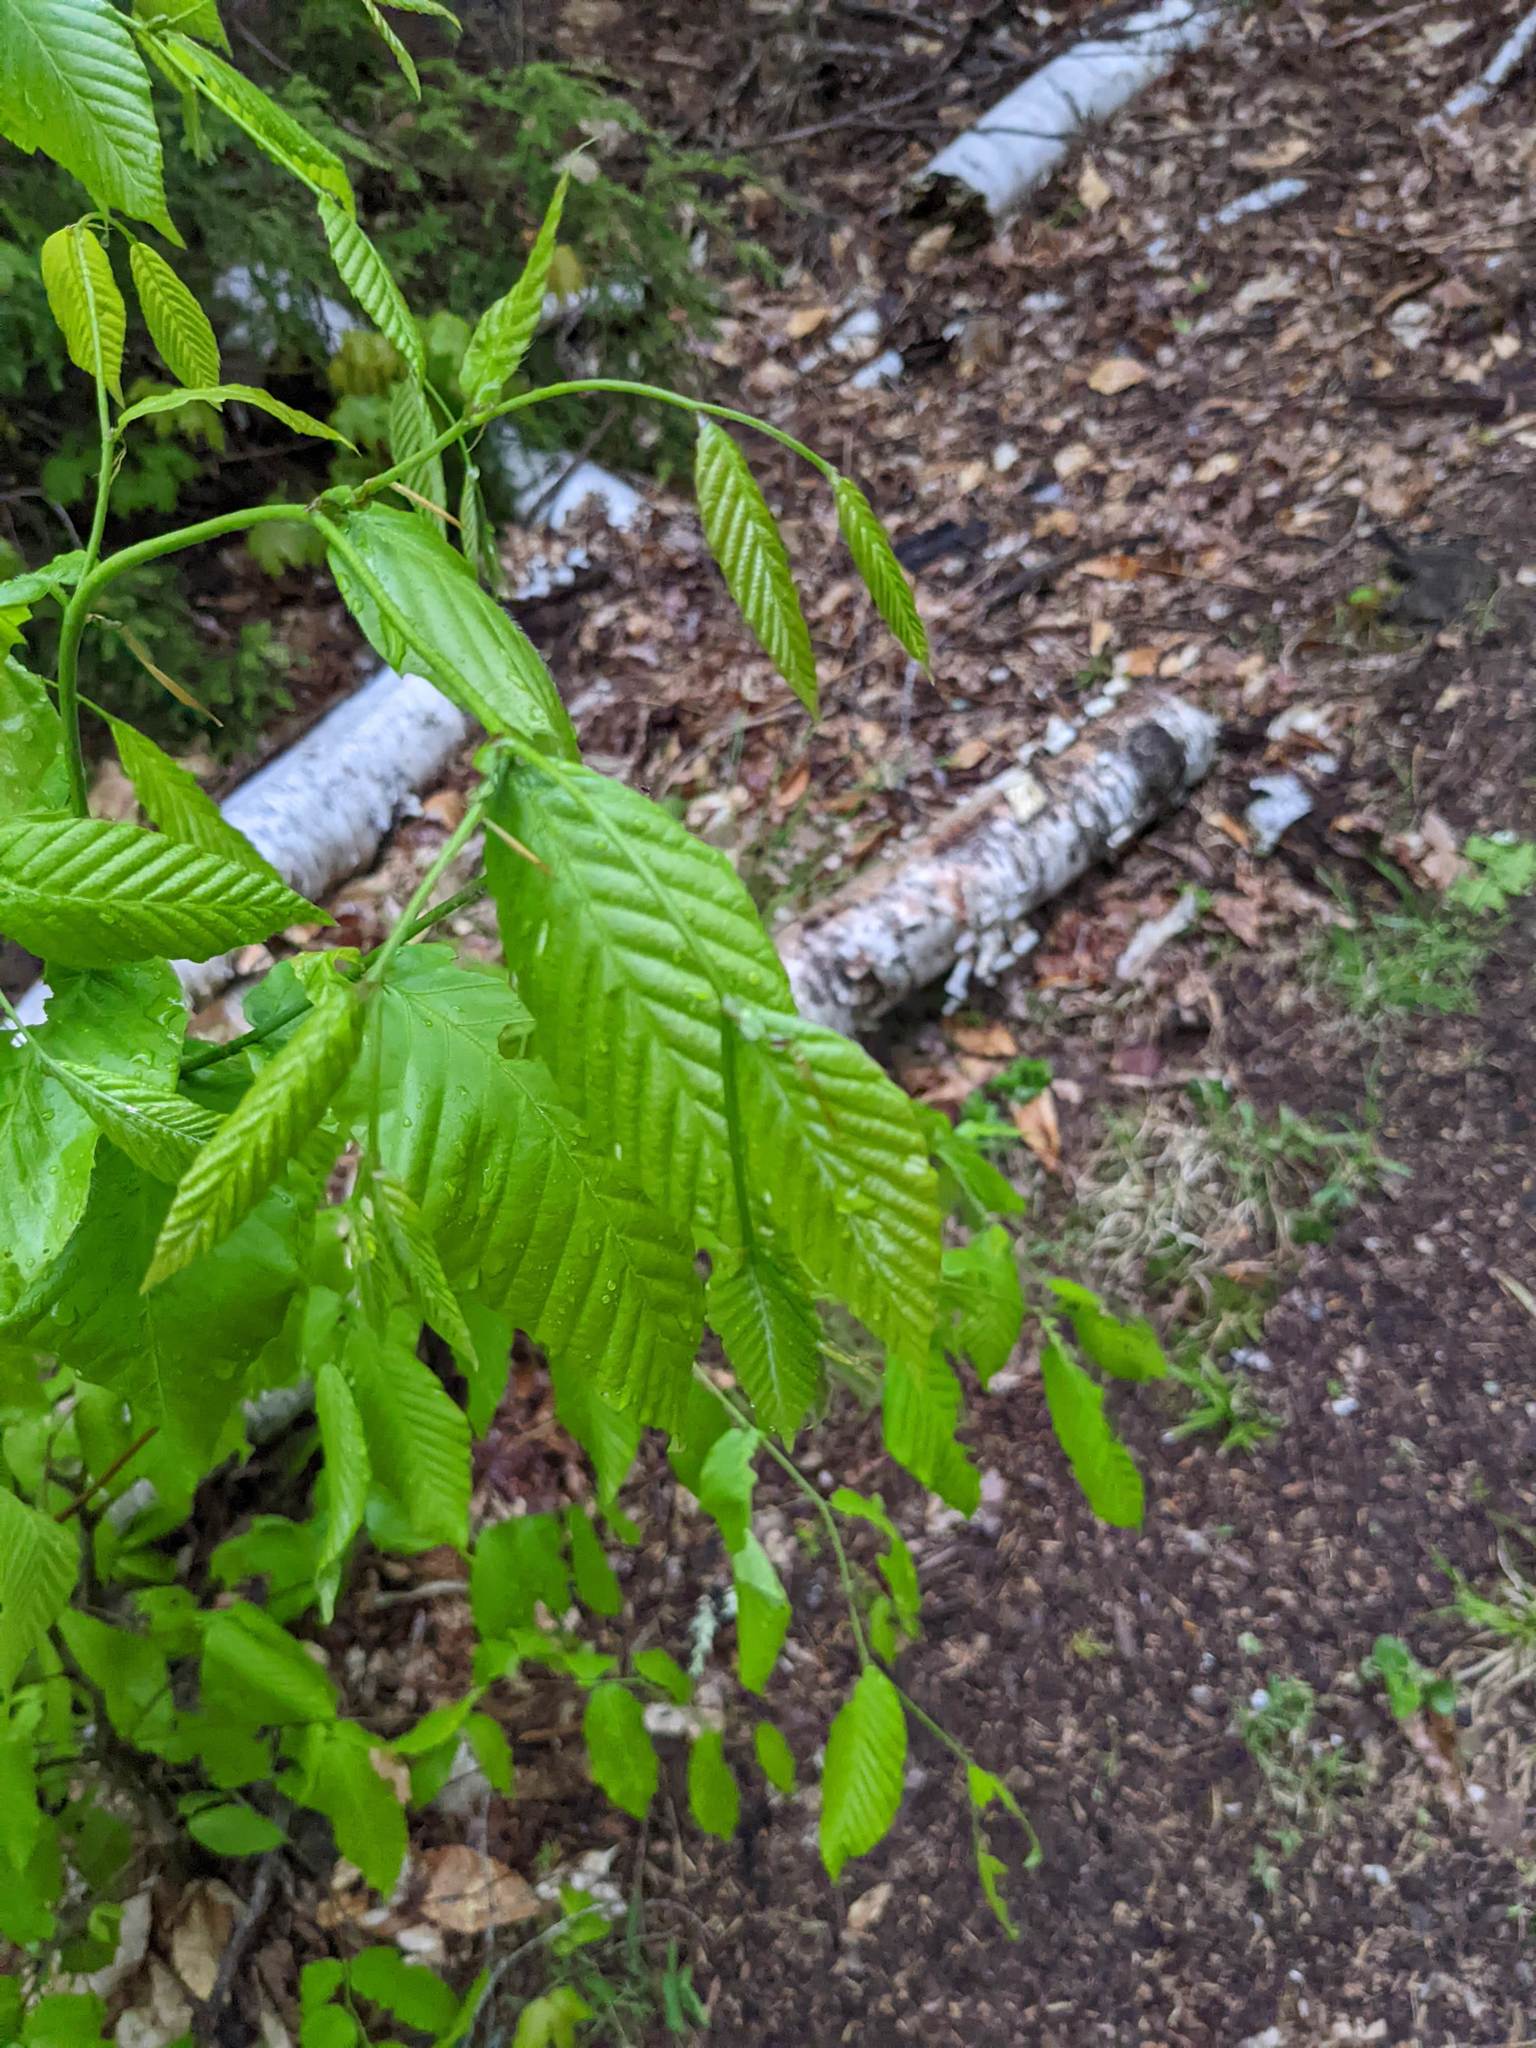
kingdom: Plantae
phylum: Tracheophyta
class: Magnoliopsida
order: Fagales
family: Fagaceae
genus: Fagus
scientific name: Fagus grandifolia
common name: American beech
